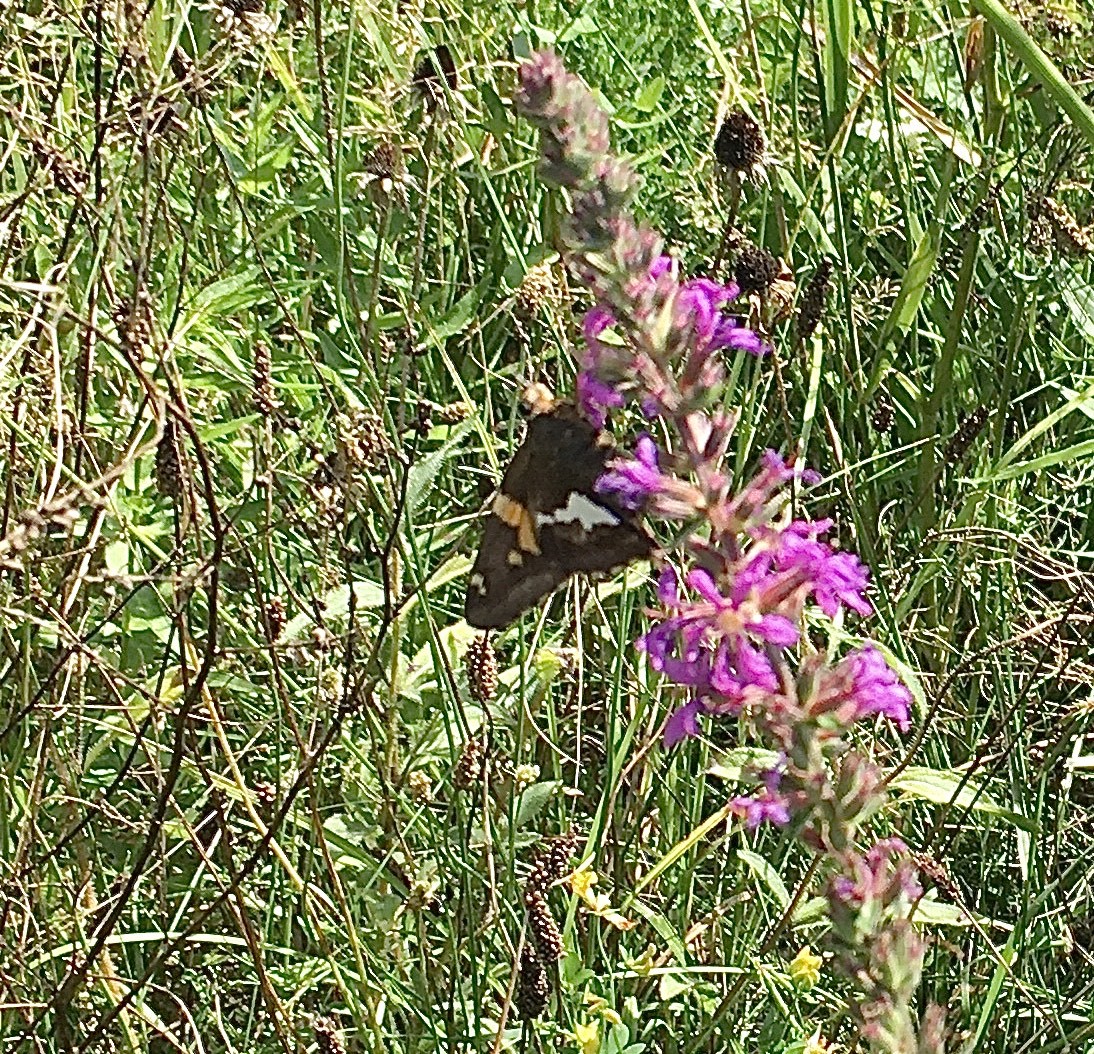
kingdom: Animalia
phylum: Arthropoda
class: Insecta
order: Lepidoptera
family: Hesperiidae
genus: Epargyreus
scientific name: Epargyreus clarus
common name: Silver-spotted skipper
